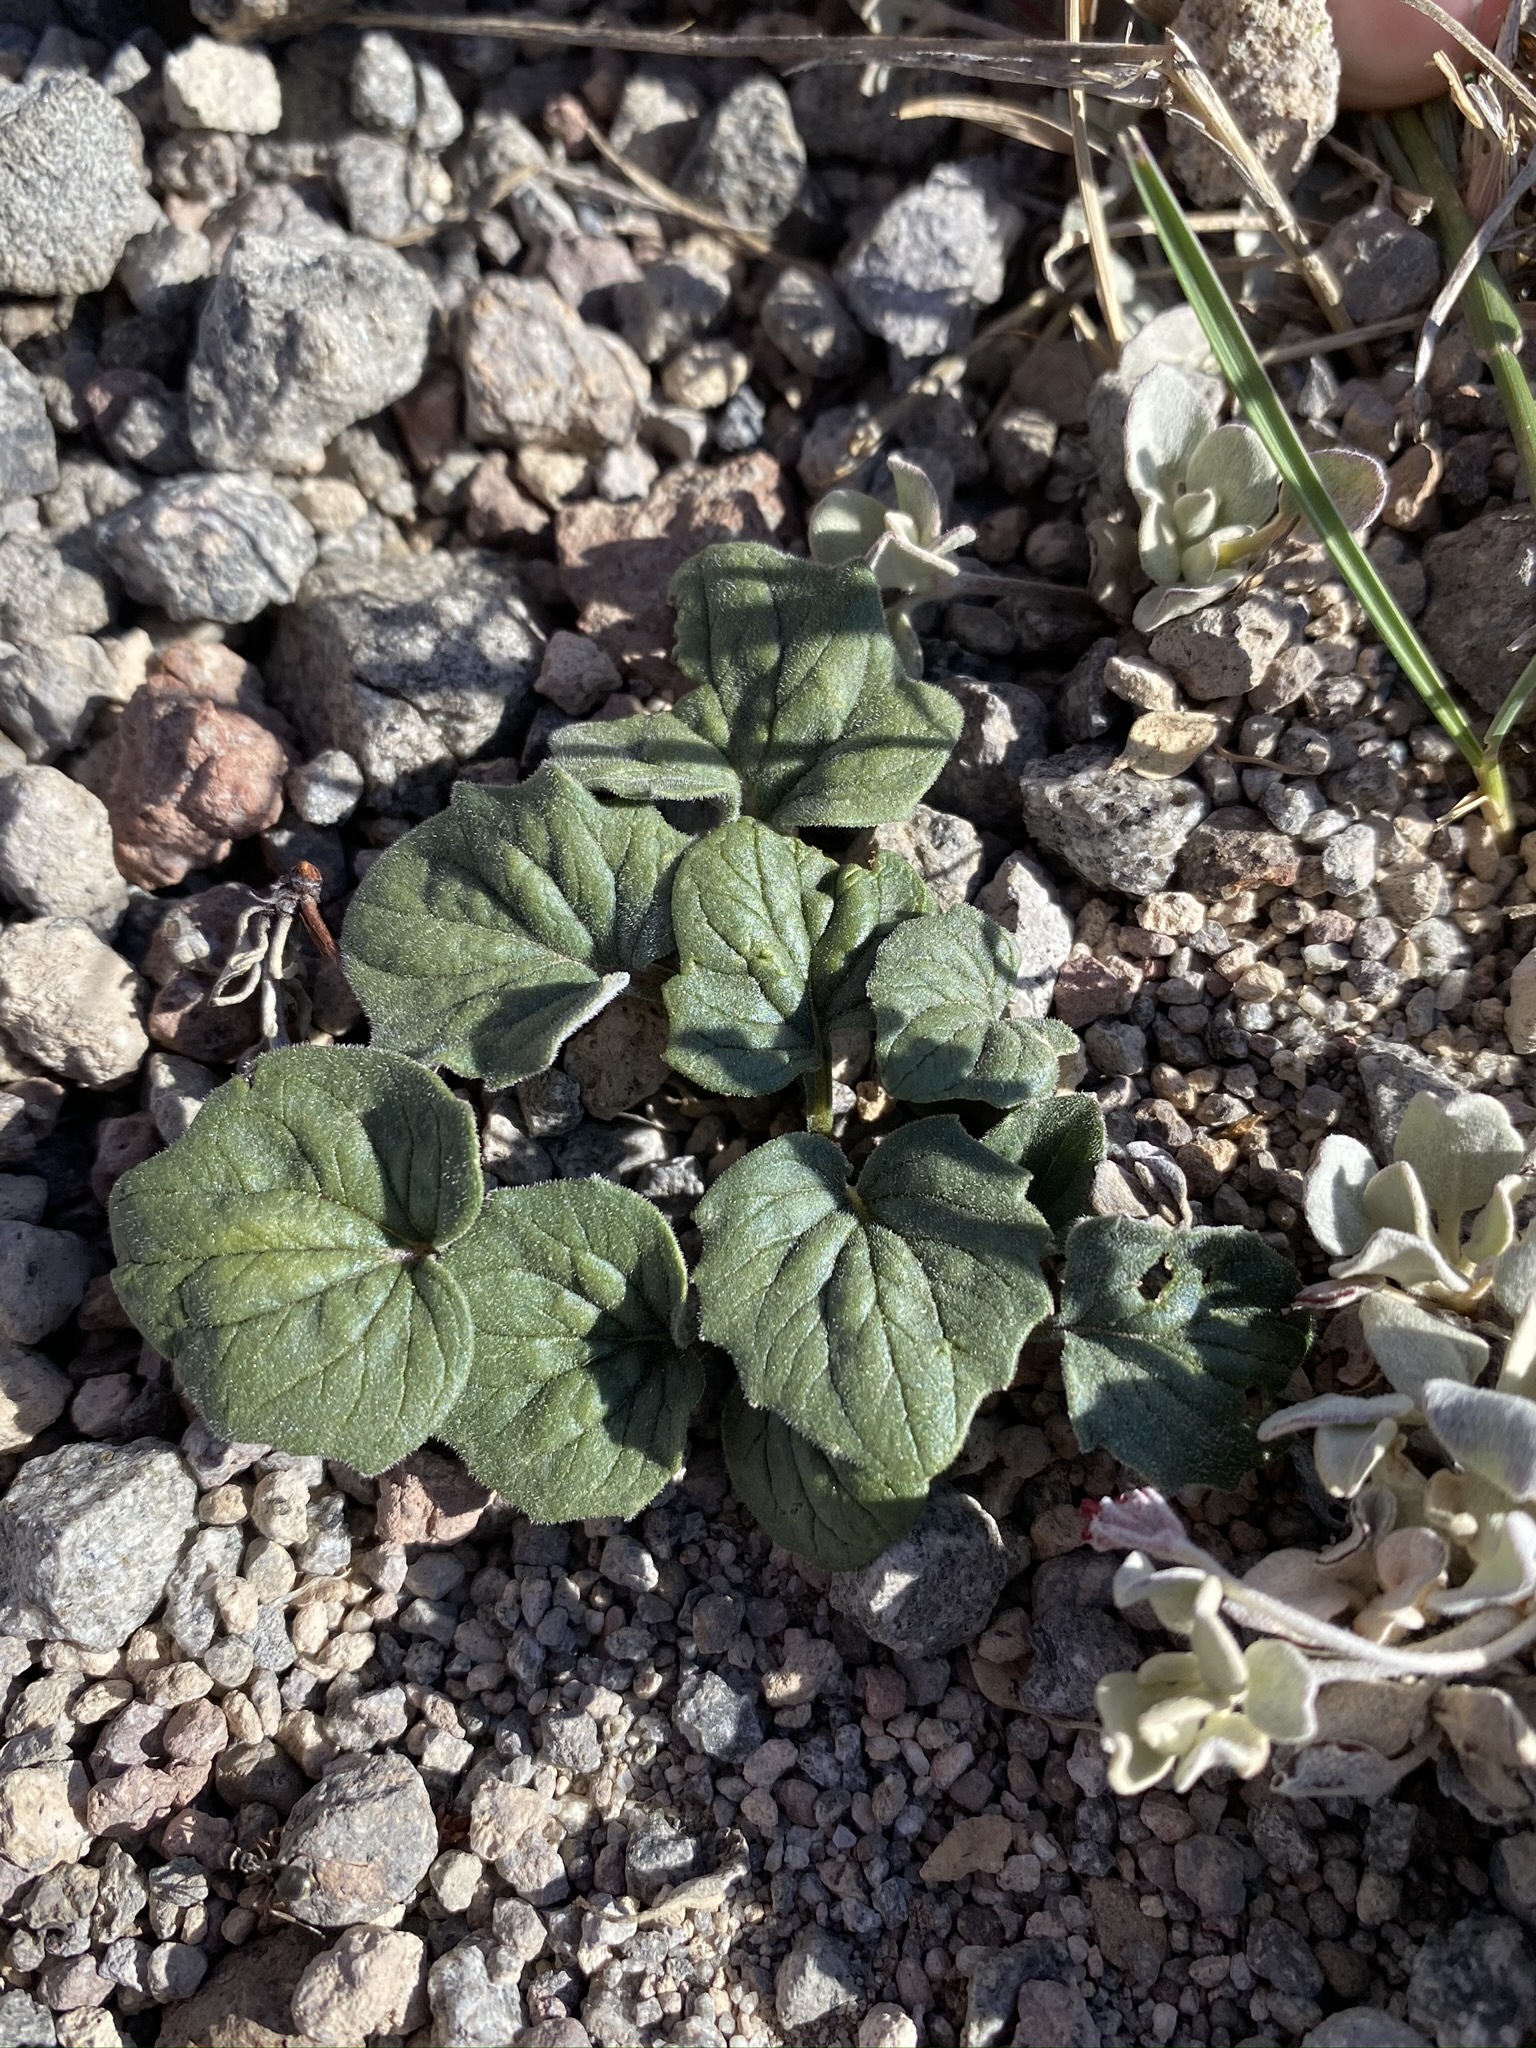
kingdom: Plantae
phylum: Tracheophyta
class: Magnoliopsida
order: Malpighiales
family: Violaceae
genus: Viola
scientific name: Viola purpurea
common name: Pine violet
